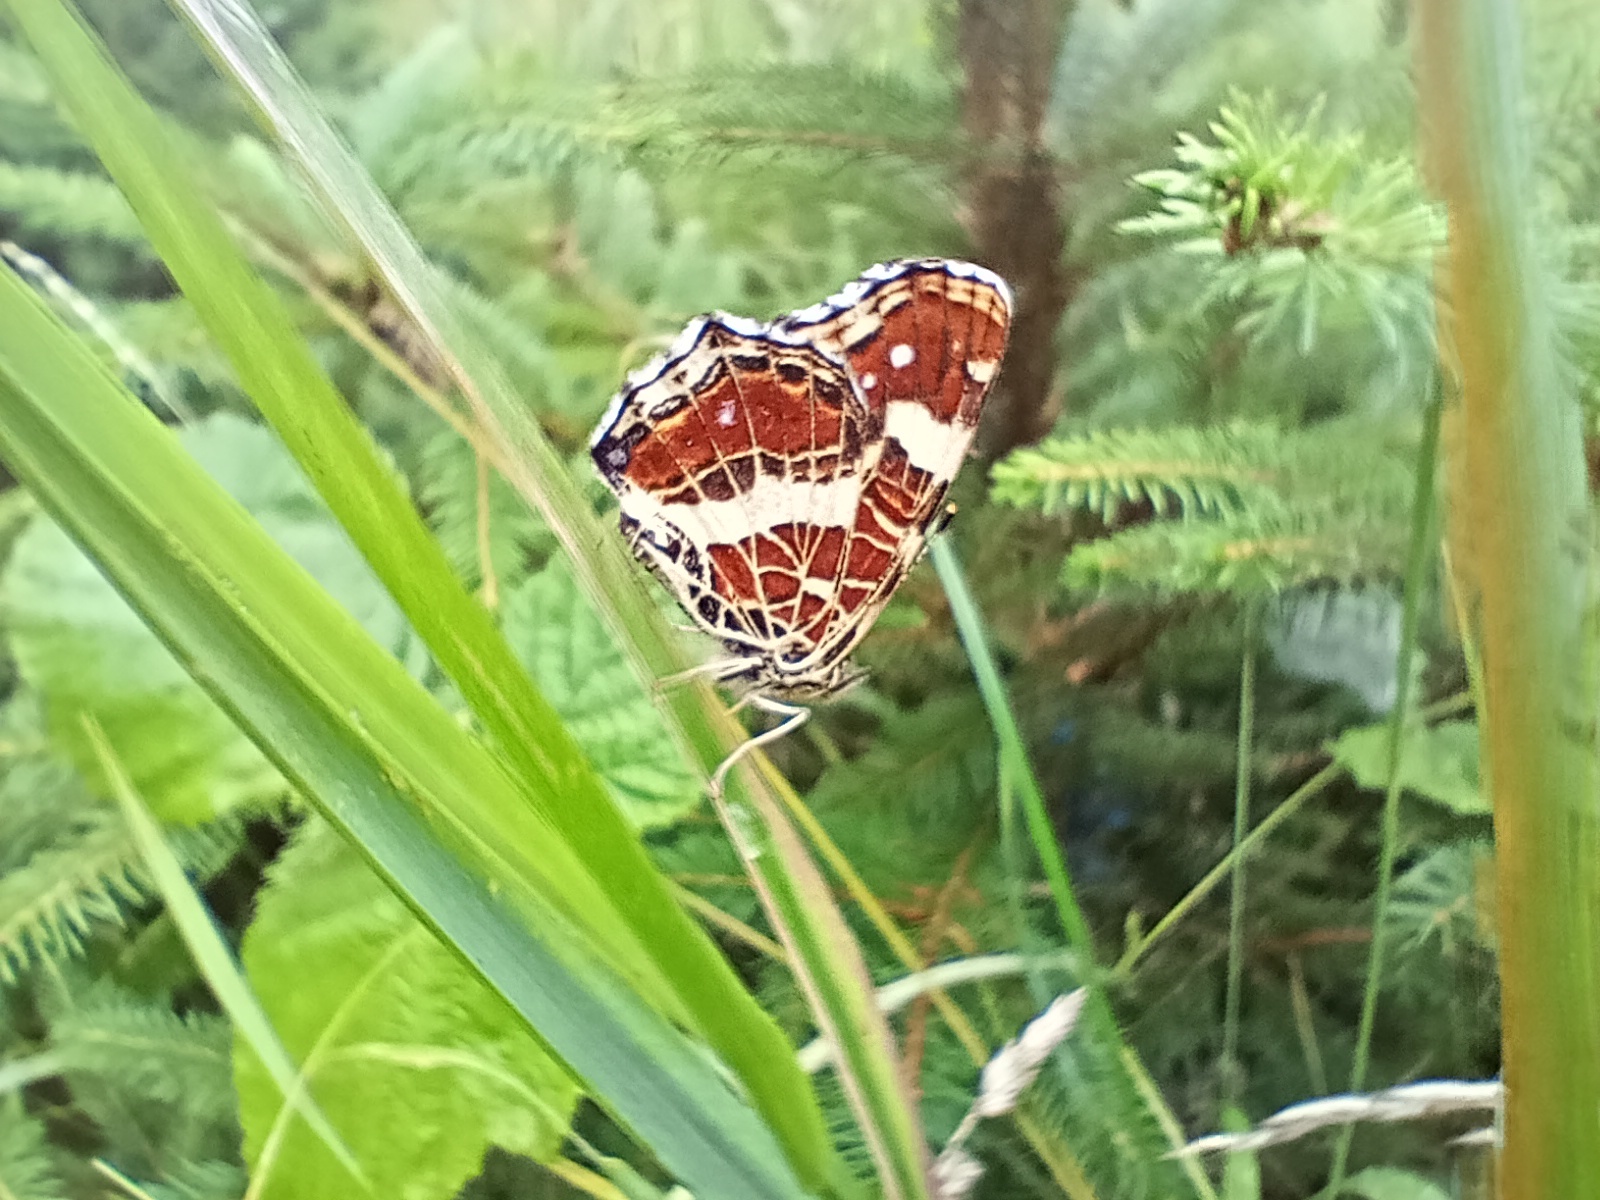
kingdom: Animalia
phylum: Arthropoda
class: Insecta
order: Lepidoptera
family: Nymphalidae
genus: Araschnia
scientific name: Araschnia levana
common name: Map butterfly
